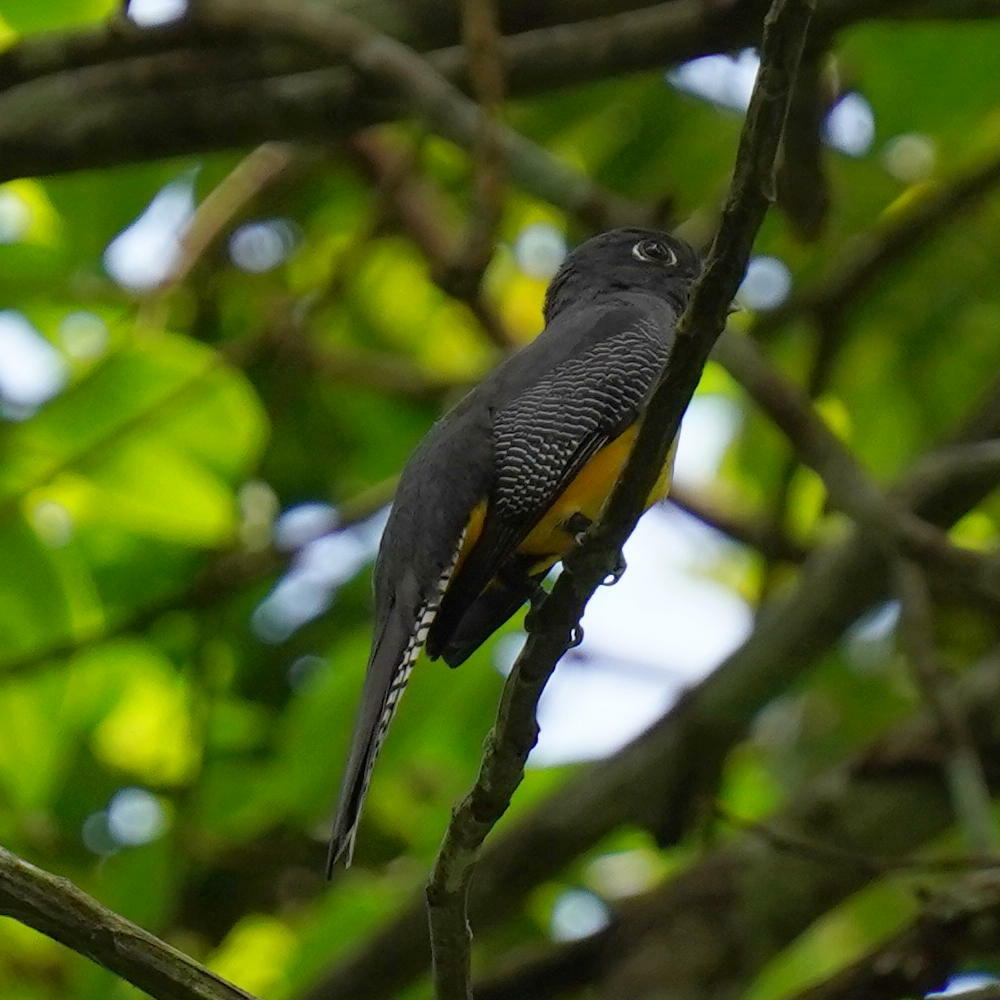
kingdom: Animalia
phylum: Chordata
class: Aves
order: Trogoniformes
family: Trogonidae
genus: Trogon
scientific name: Trogon caligatus
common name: Gartered trogon
